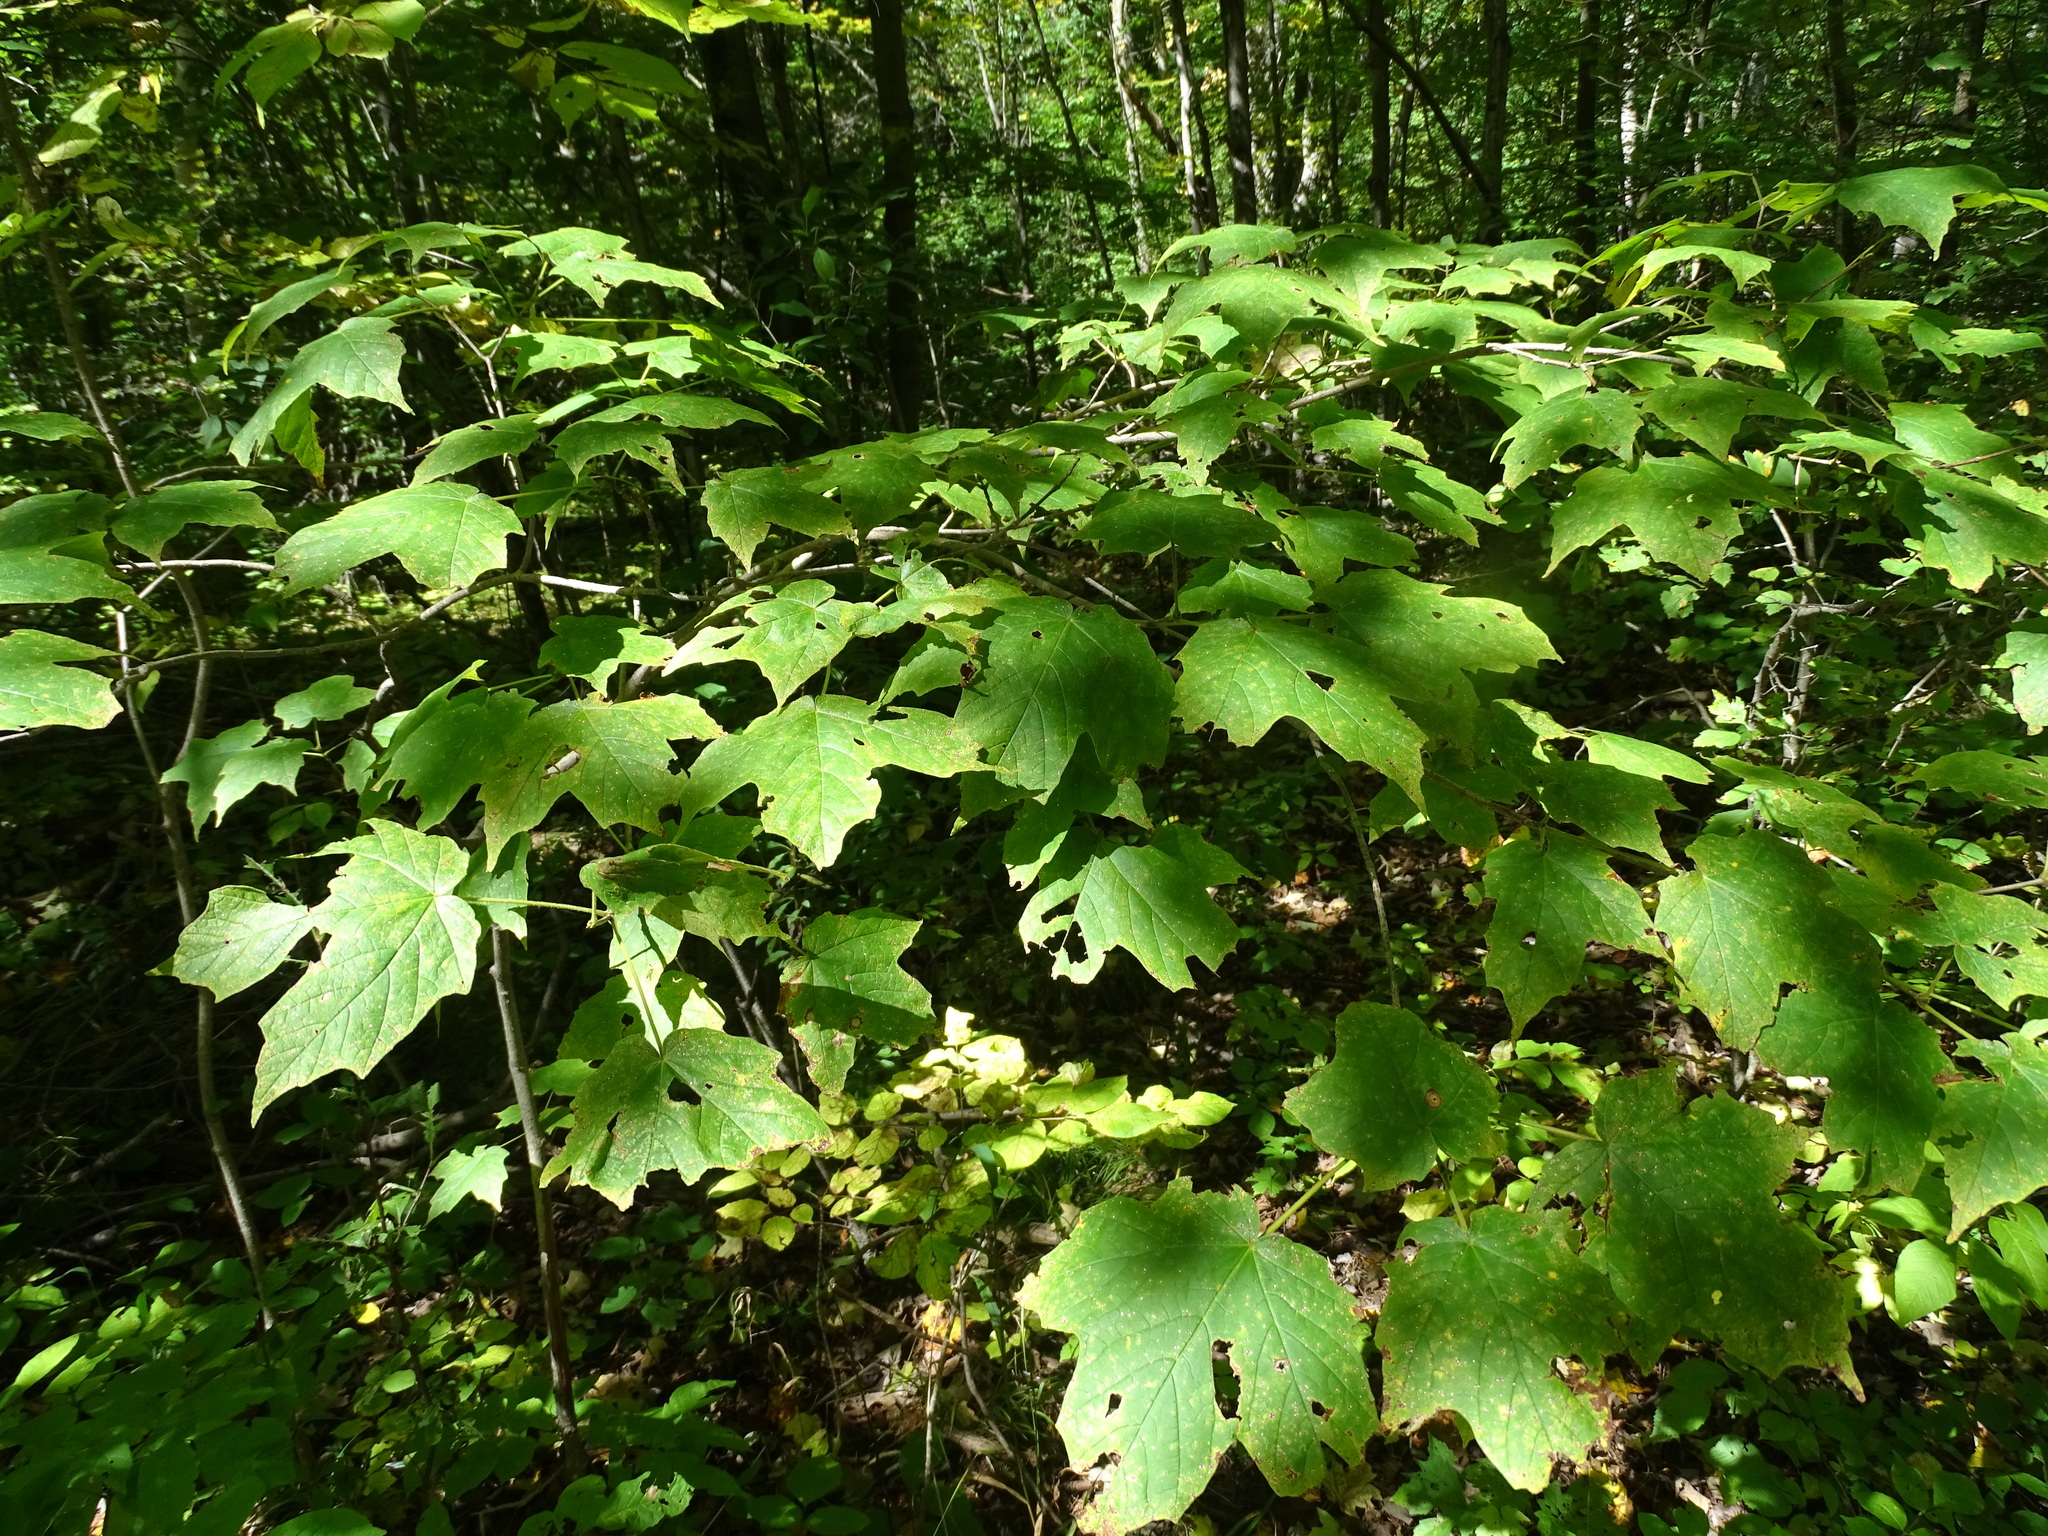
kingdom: Plantae
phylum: Tracheophyta
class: Magnoliopsida
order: Sapindales
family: Sapindaceae
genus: Acer
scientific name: Acer nigrum
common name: Black maple
